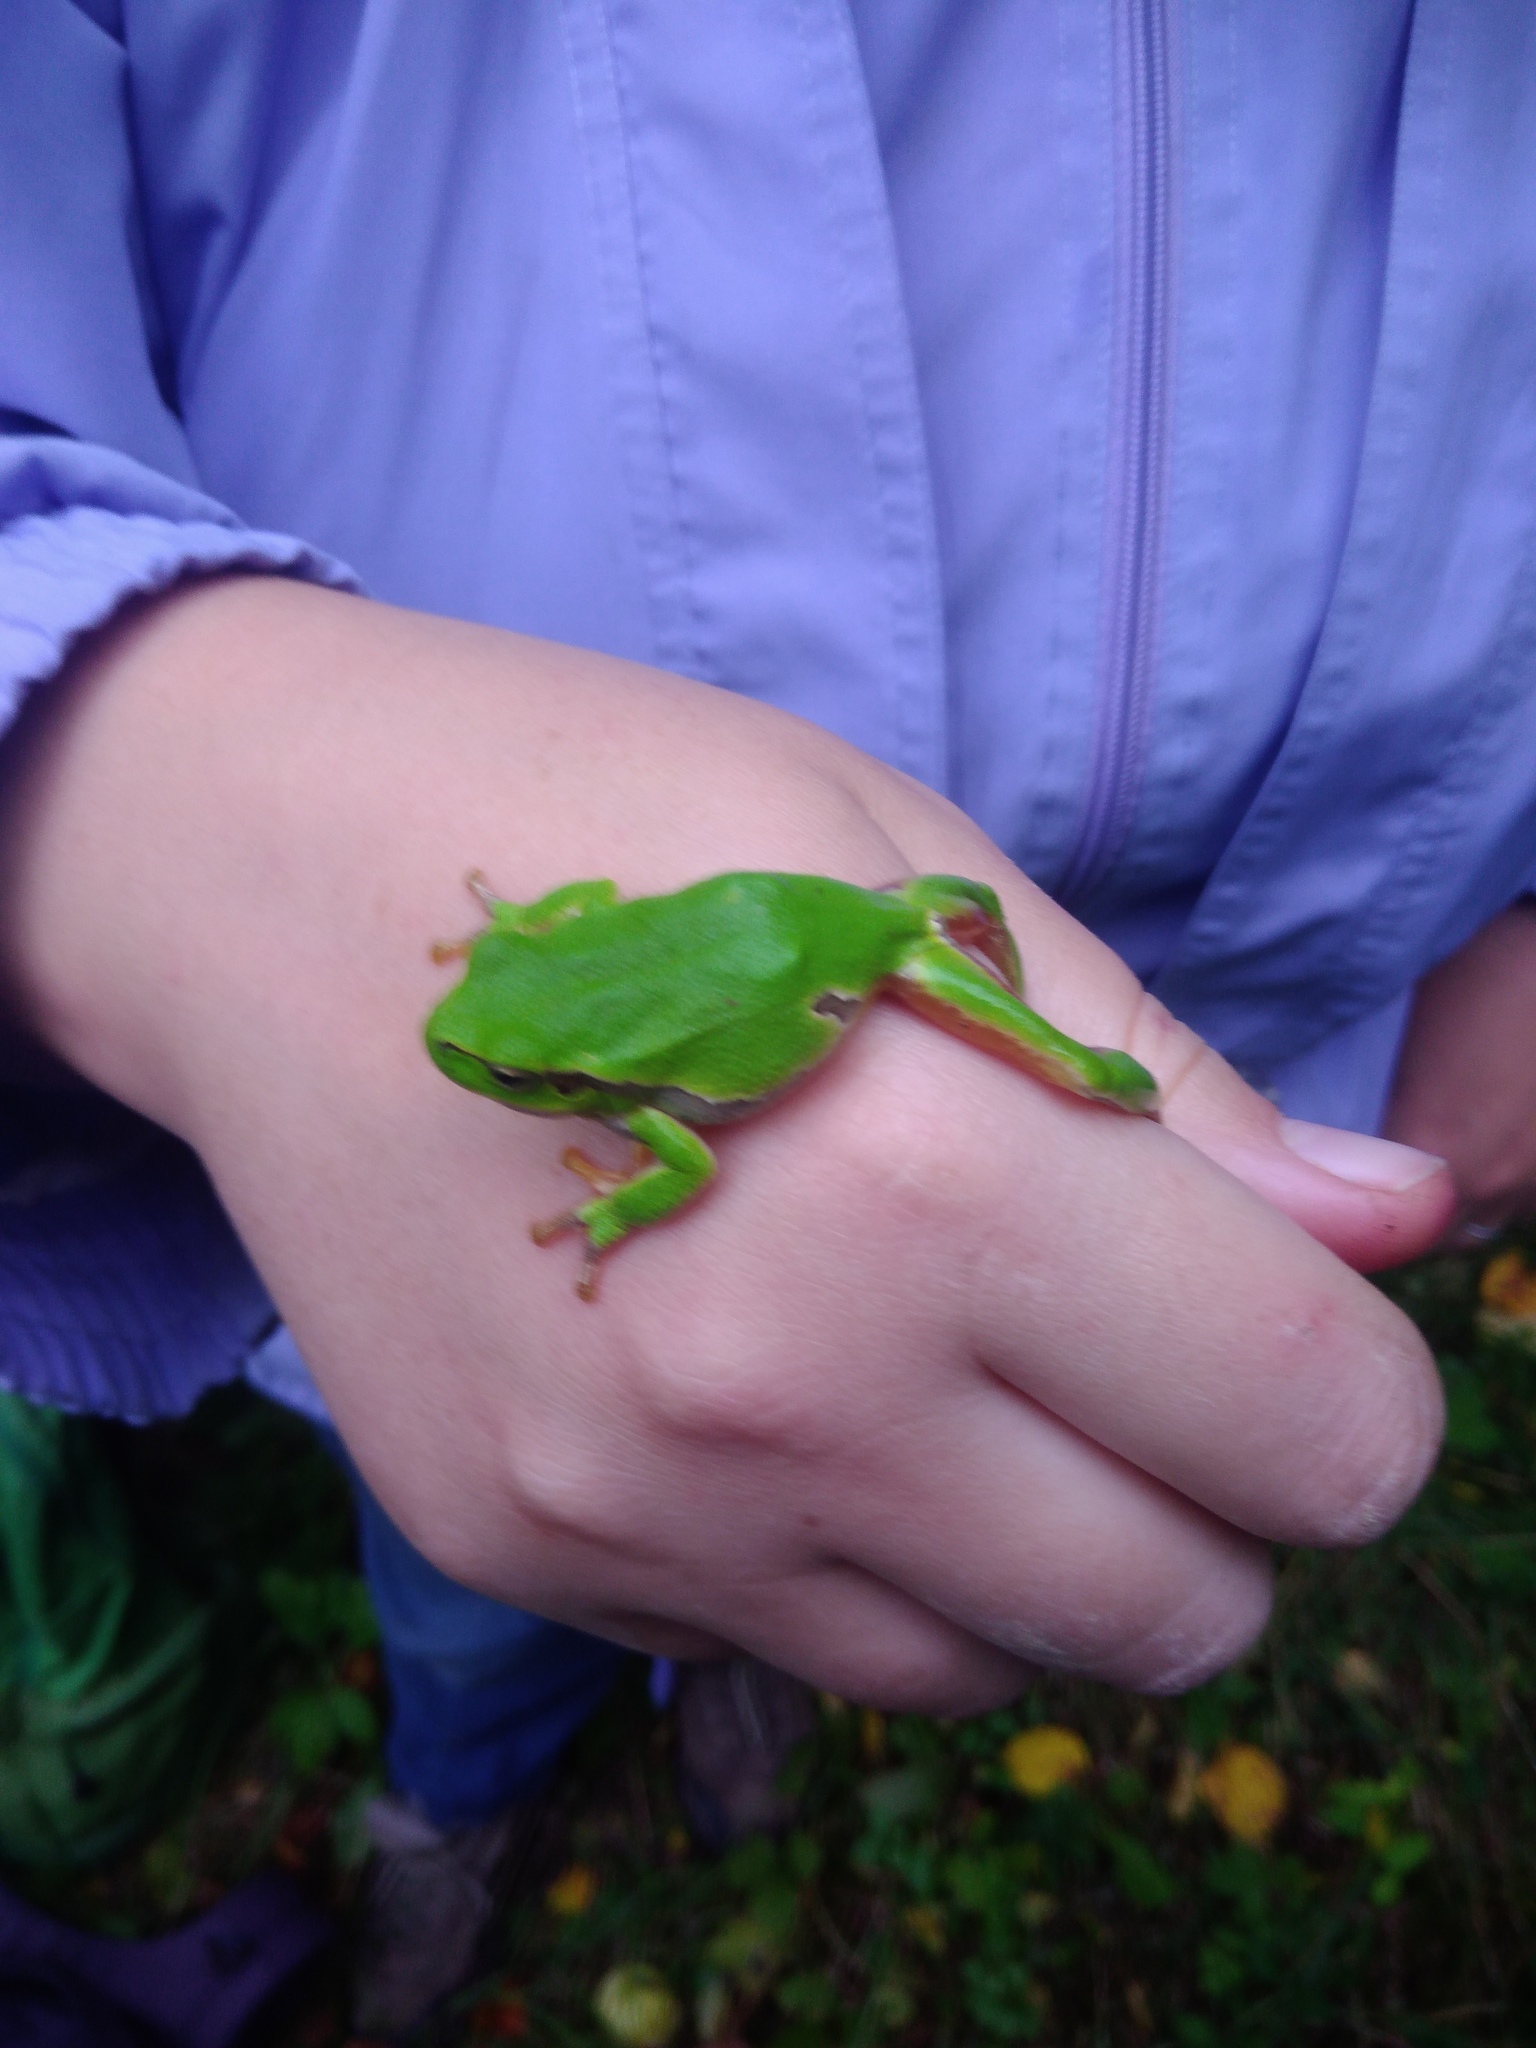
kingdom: Animalia
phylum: Chordata
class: Amphibia
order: Anura
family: Hylidae
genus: Hyla
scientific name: Hyla orientalis
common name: Caucasian treefrog
